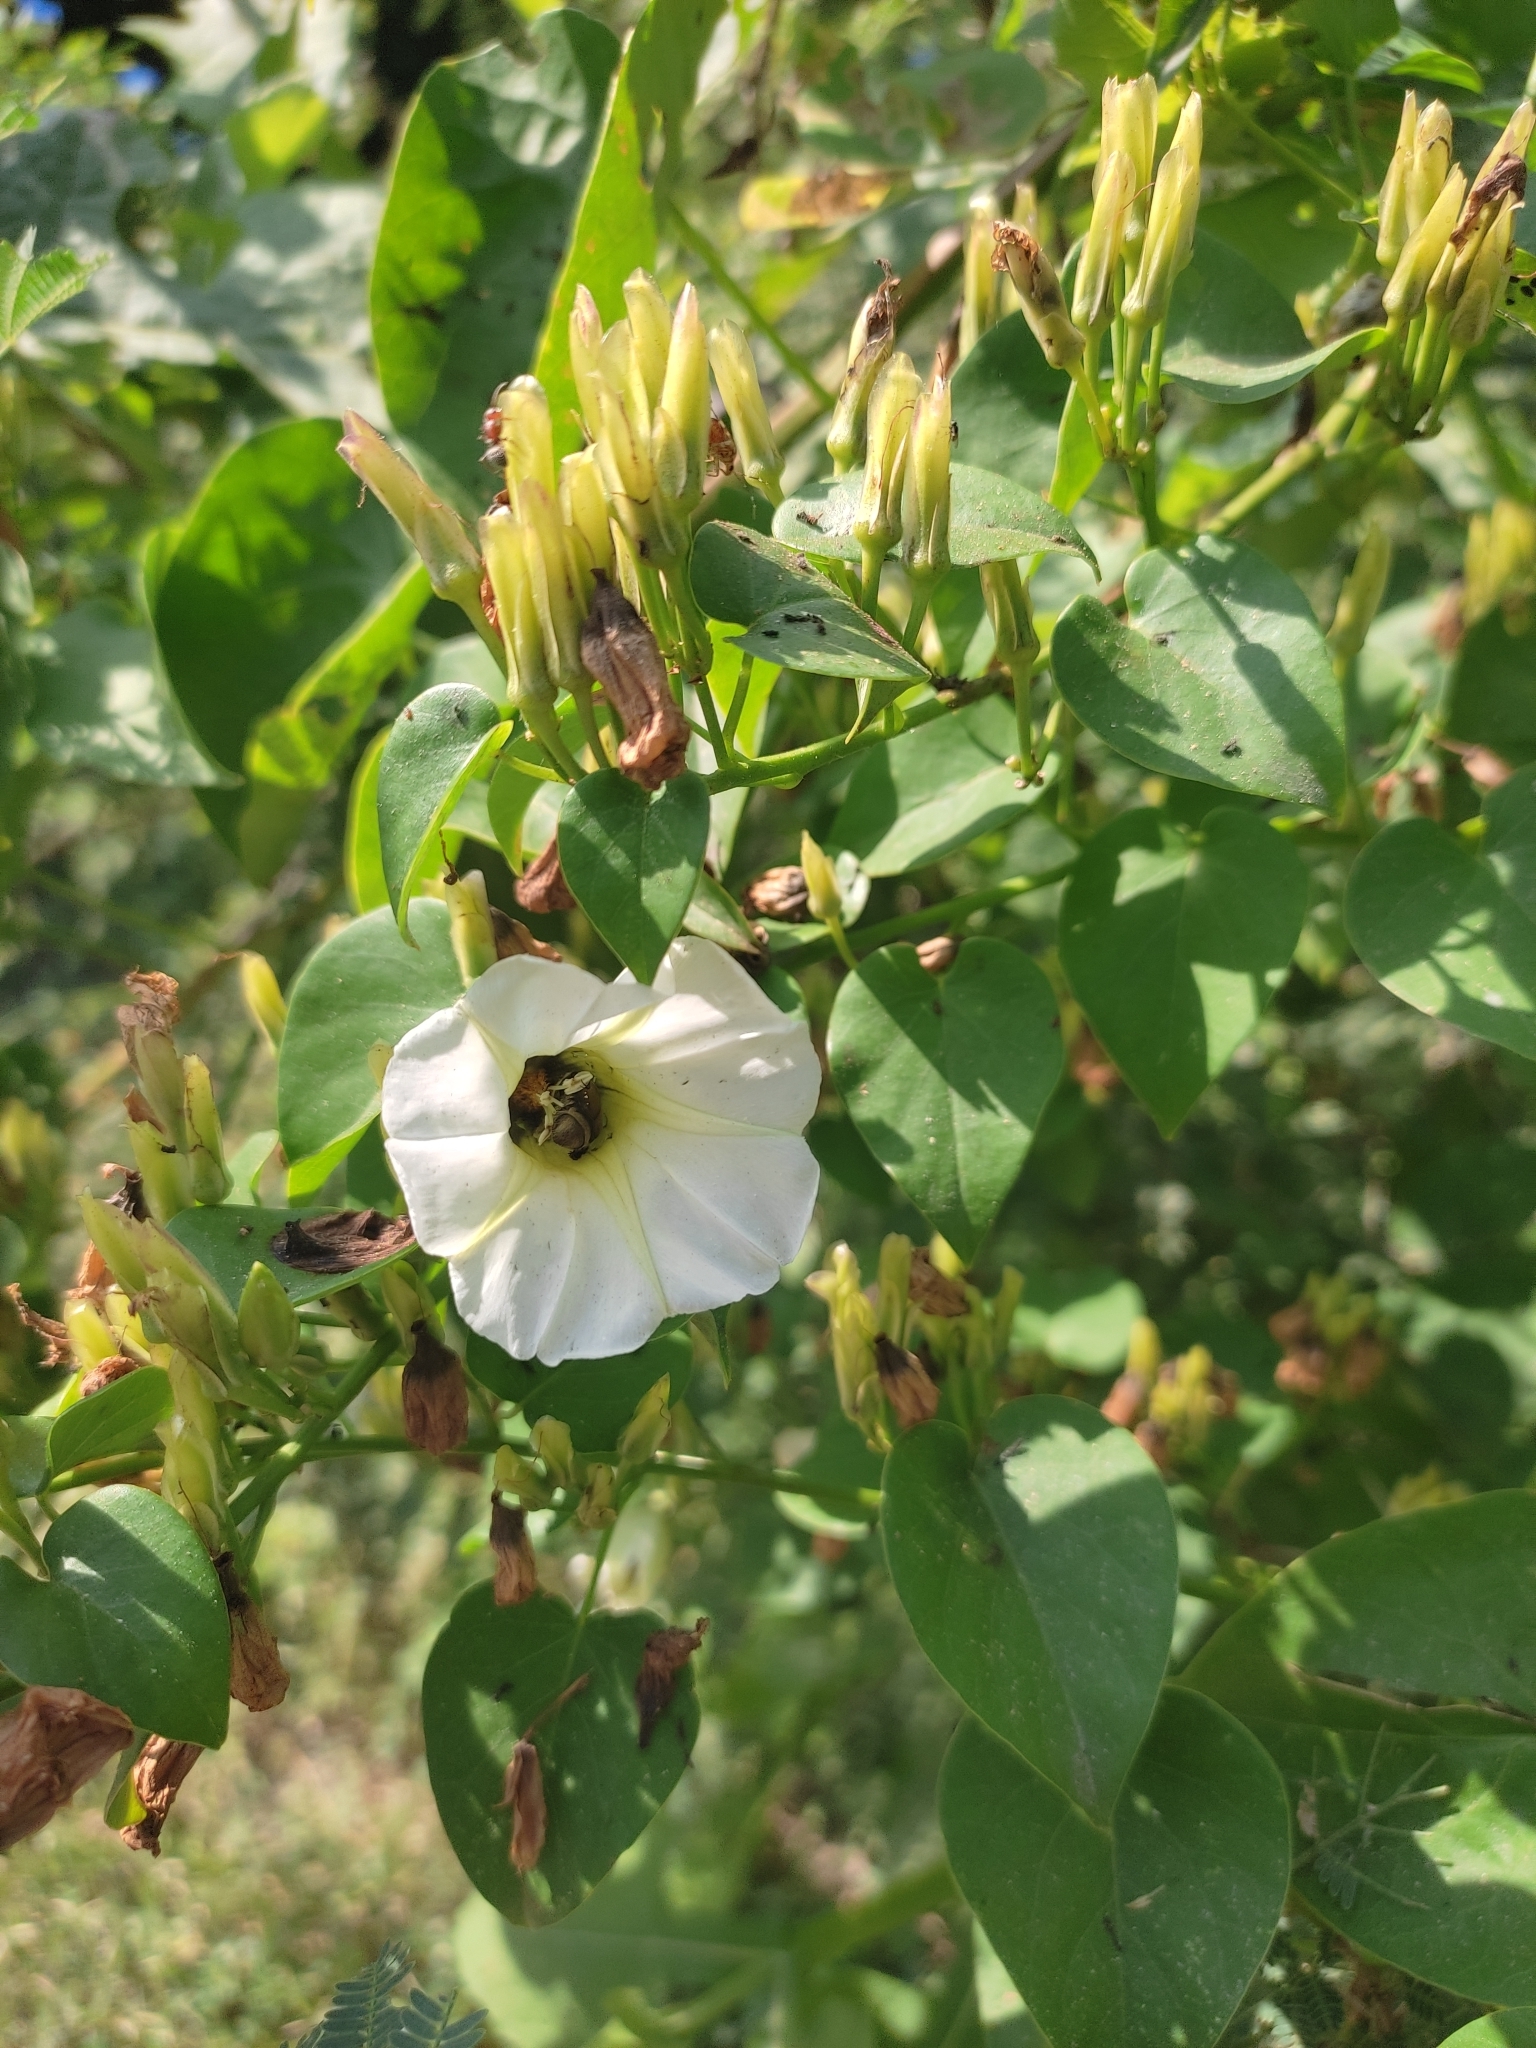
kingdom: Plantae
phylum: Tracheophyta
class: Magnoliopsida
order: Solanales
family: Convolvulaceae
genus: Ipomoea
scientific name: Ipomoea corymbosa
